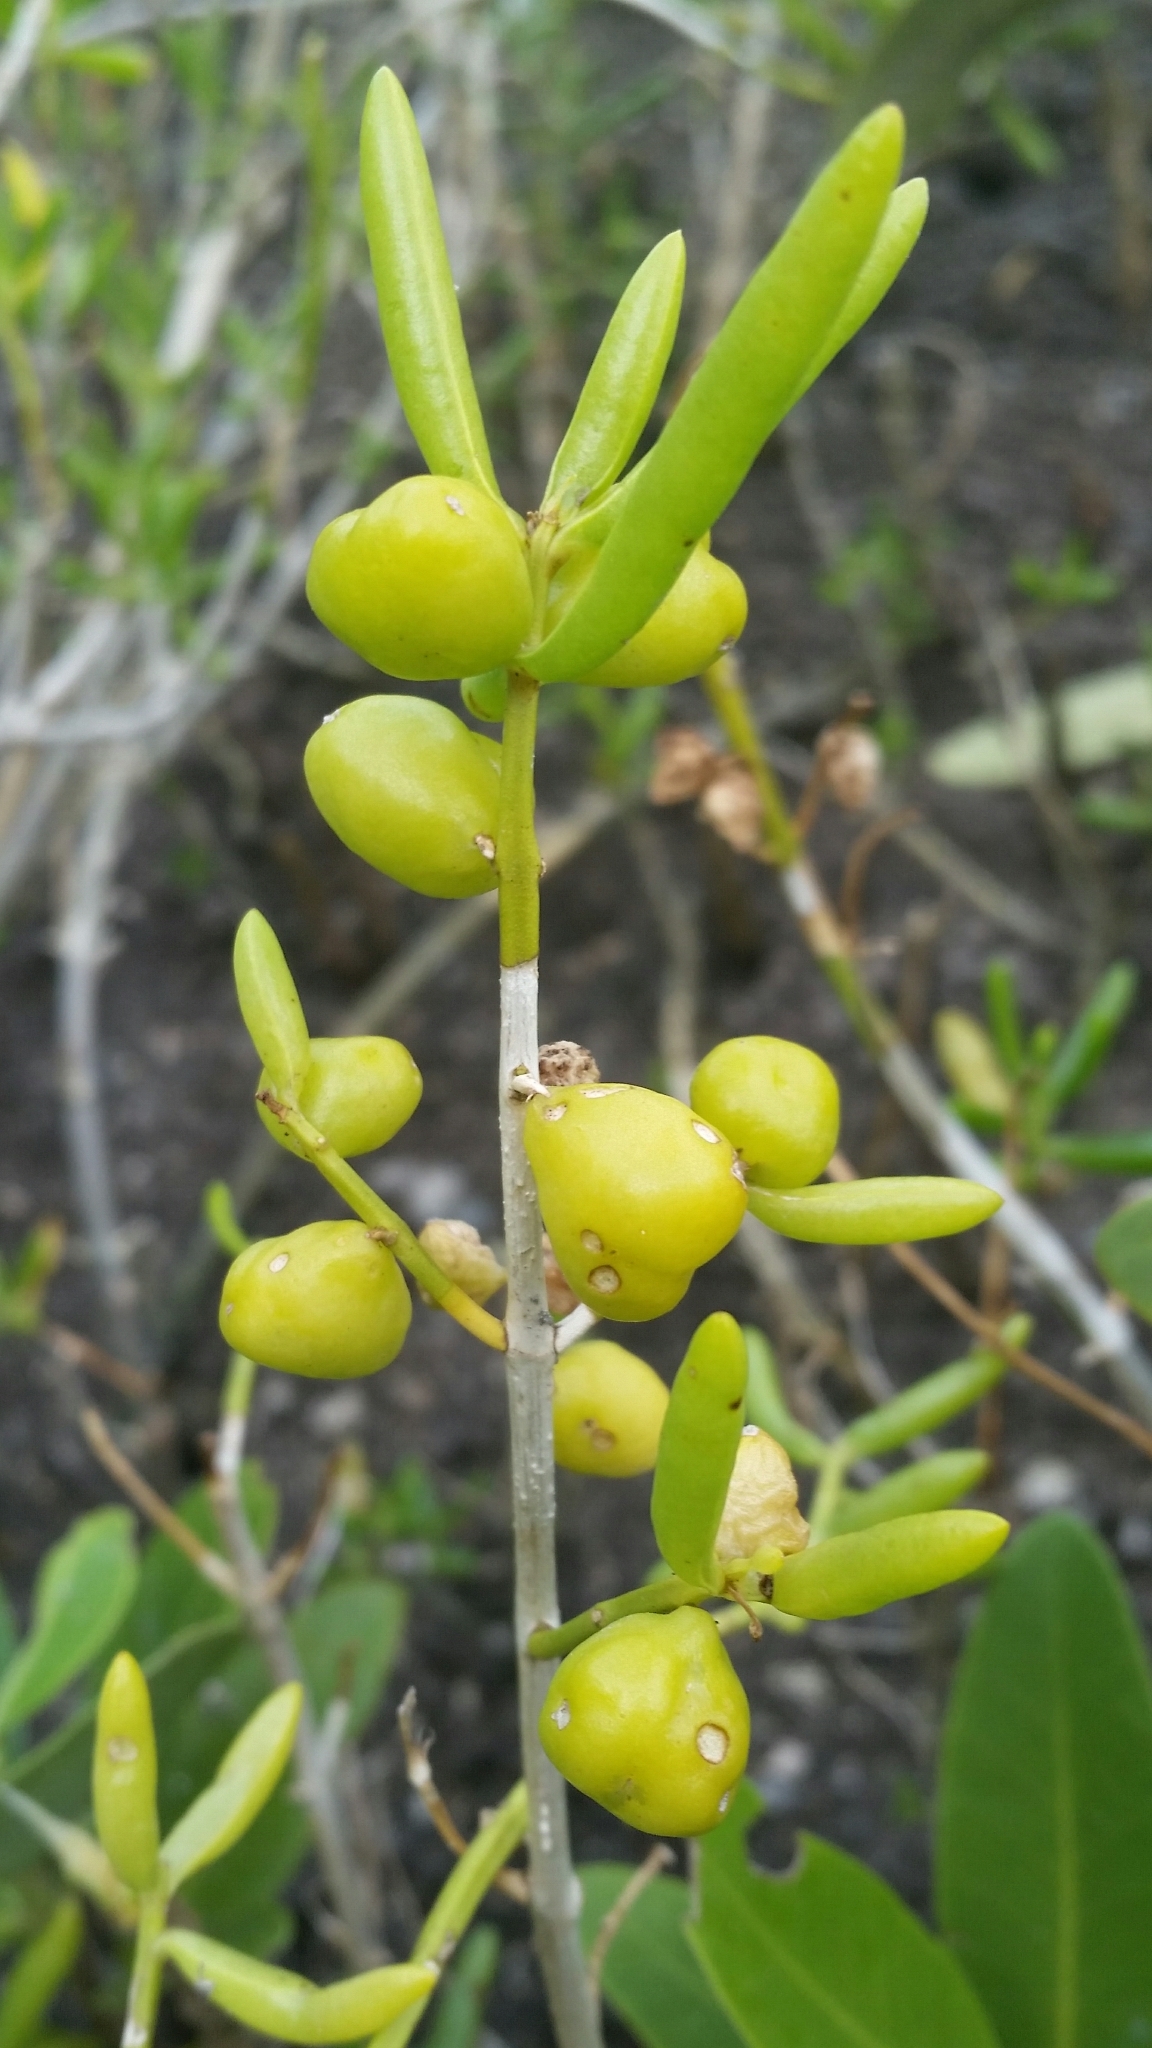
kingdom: Plantae
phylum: Tracheophyta
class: Magnoliopsida
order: Brassicales
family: Bataceae
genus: Batis
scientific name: Batis maritima
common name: Turtleweed
